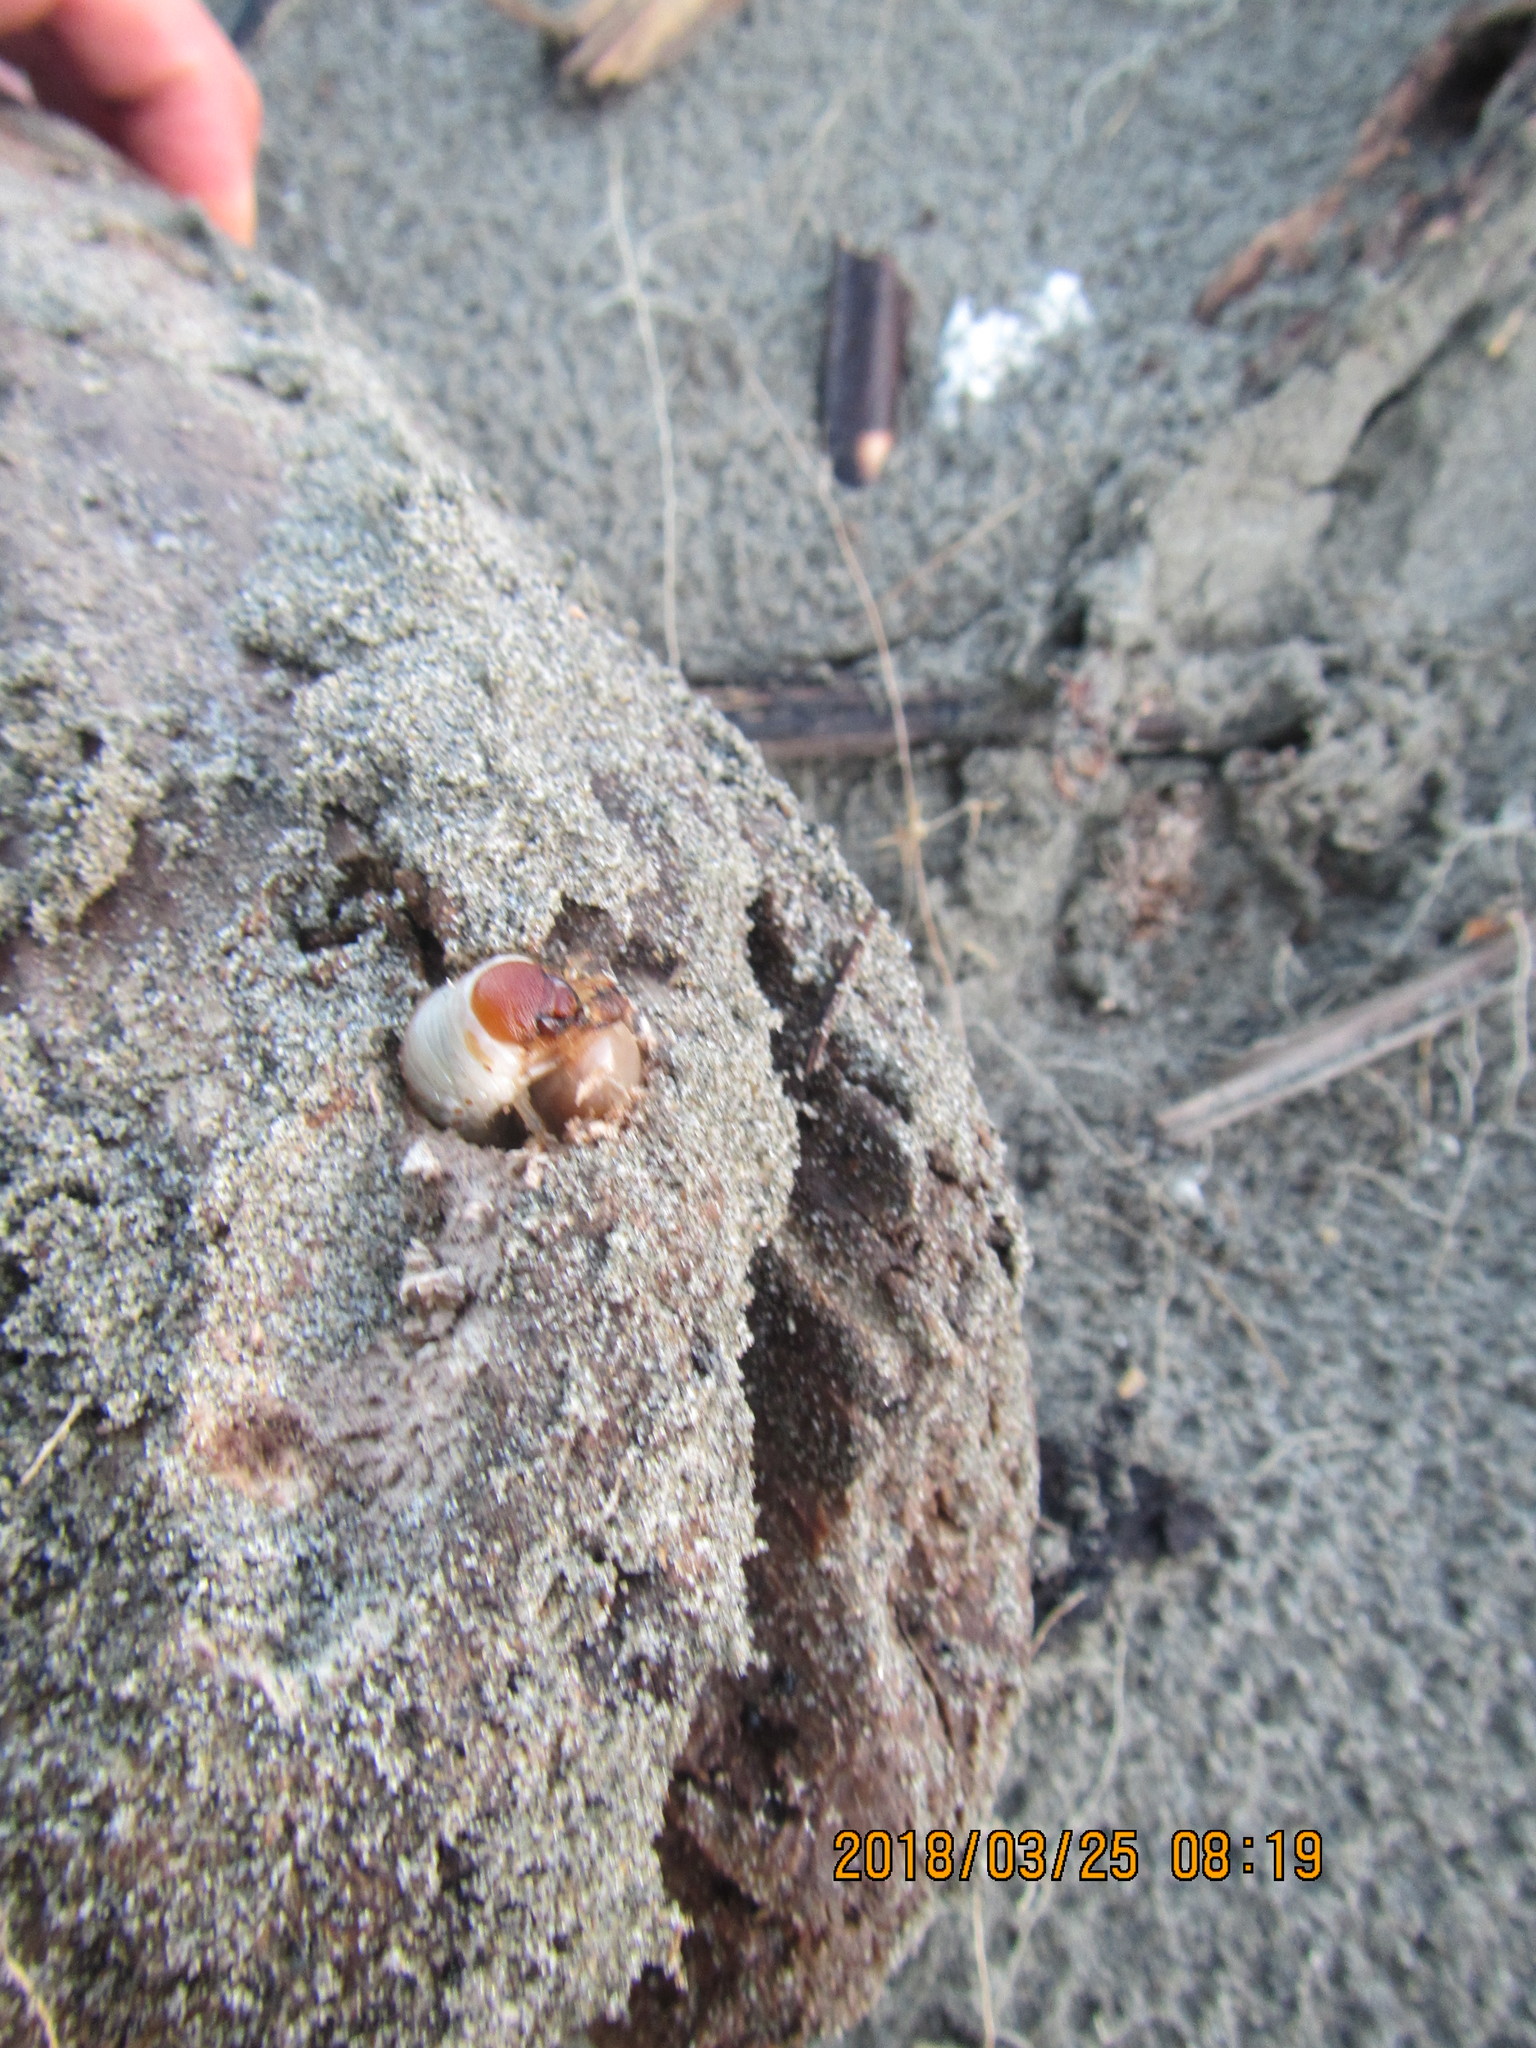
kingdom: Animalia
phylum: Arthropoda
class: Insecta
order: Coleoptera
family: Scarabaeidae
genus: Pericoptus
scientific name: Pericoptus truncatus
